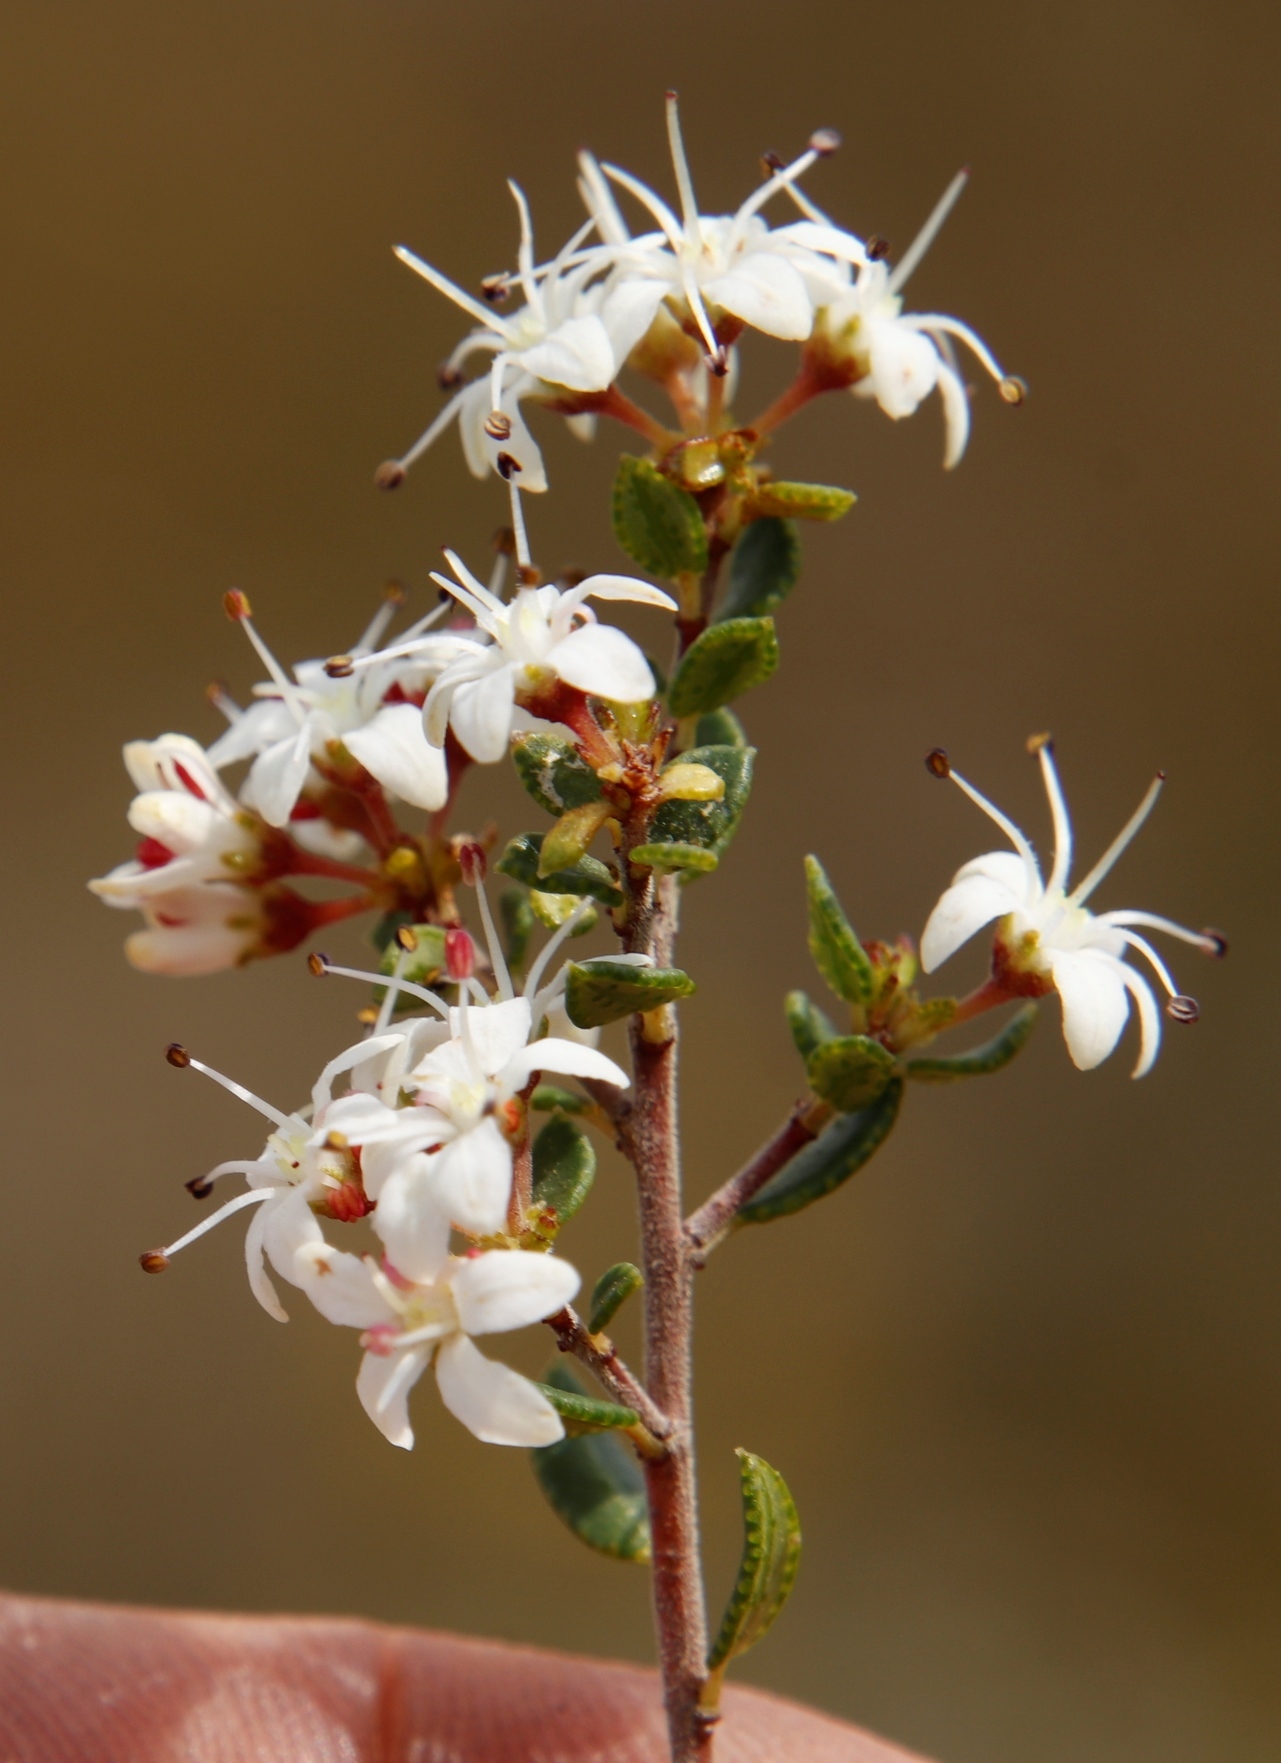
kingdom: Plantae
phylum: Tracheophyta
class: Magnoliopsida
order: Sapindales
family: Rutaceae
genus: Agathosma
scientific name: Agathosma mundtii
